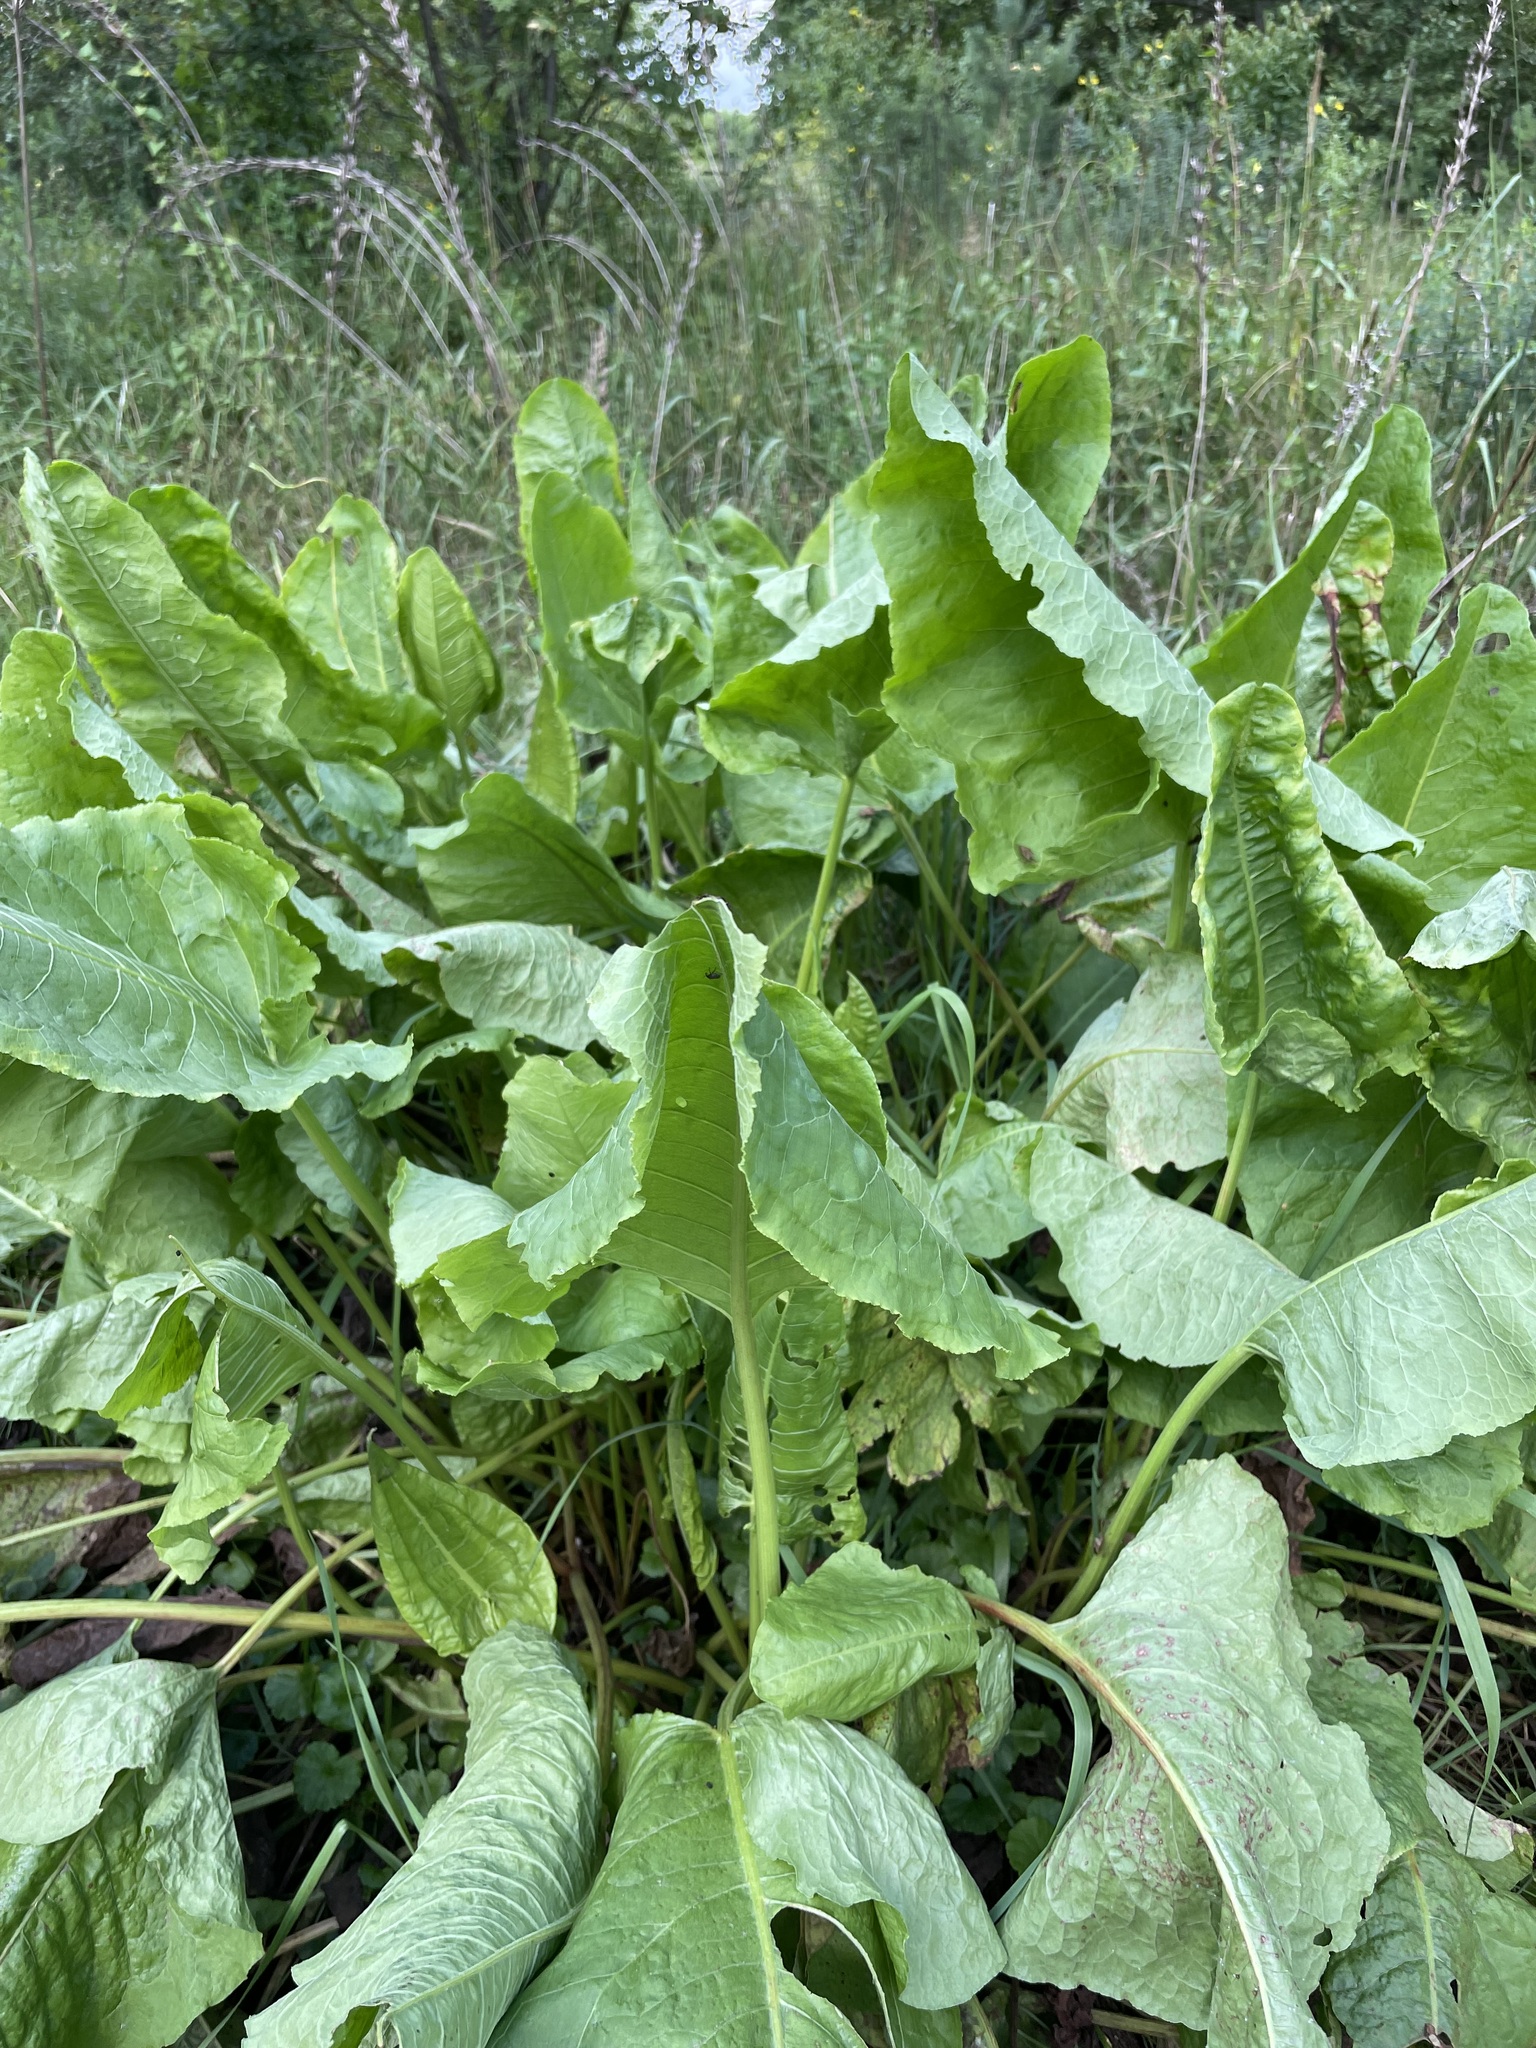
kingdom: Plantae
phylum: Tracheophyta
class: Magnoliopsida
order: Caryophyllales
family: Polygonaceae
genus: Rumex
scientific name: Rumex confertus
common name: Russian dock
